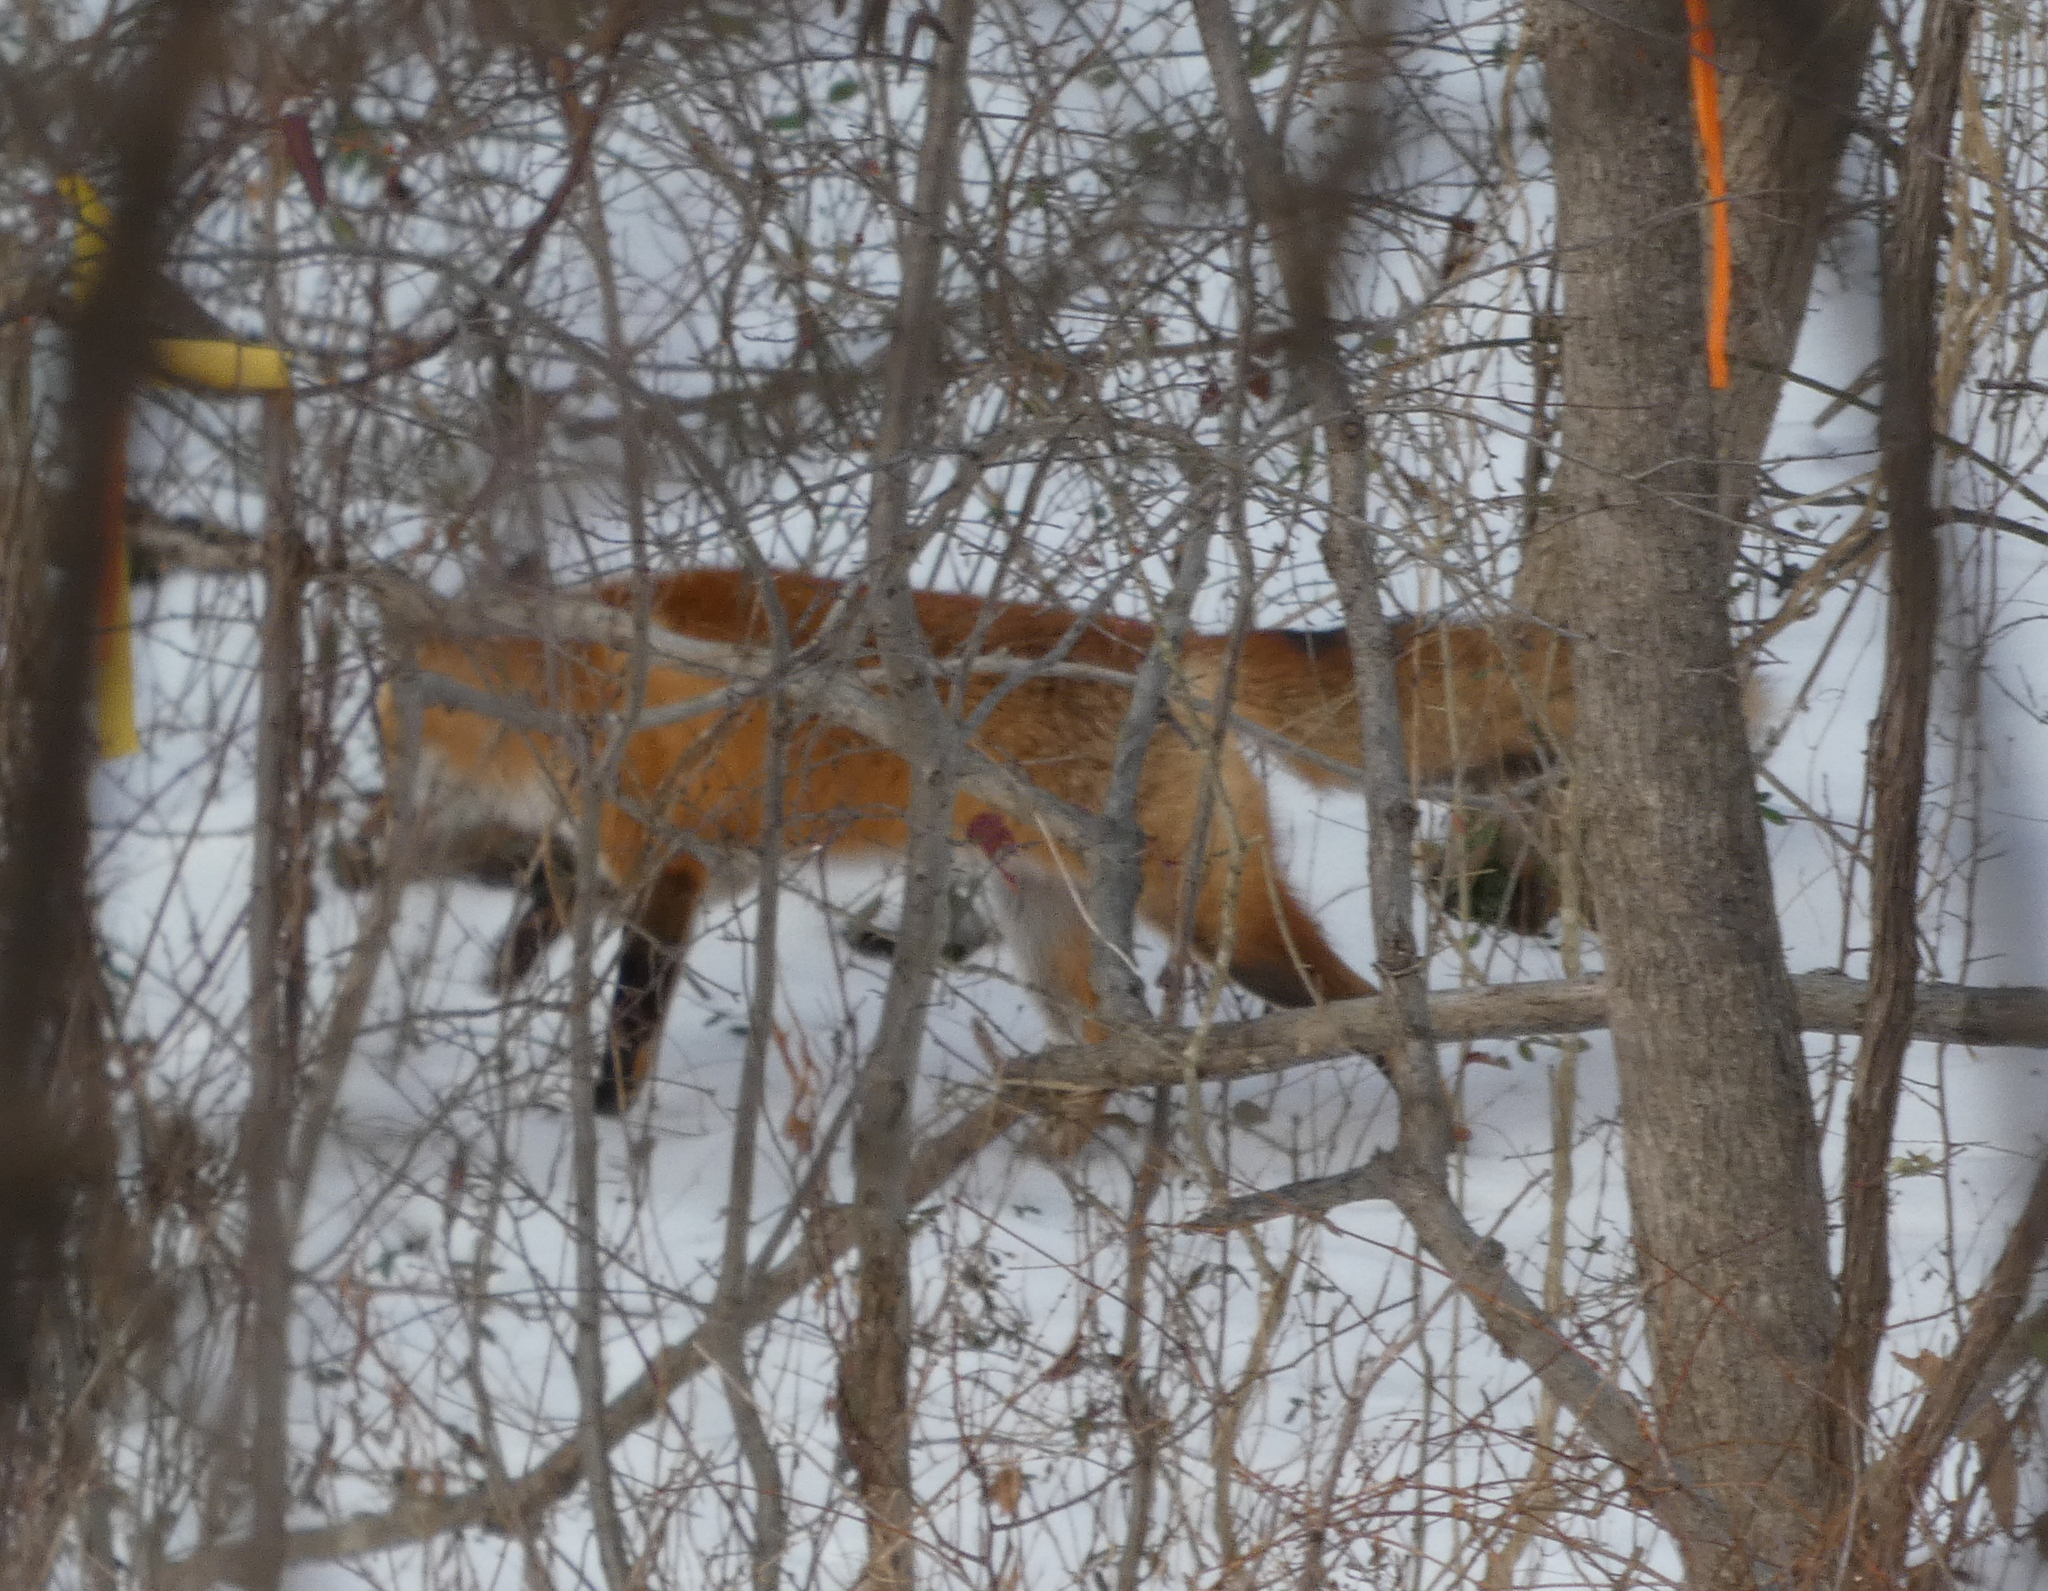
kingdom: Animalia
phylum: Chordata
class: Mammalia
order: Carnivora
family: Canidae
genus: Vulpes
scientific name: Vulpes vulpes
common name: Red fox
